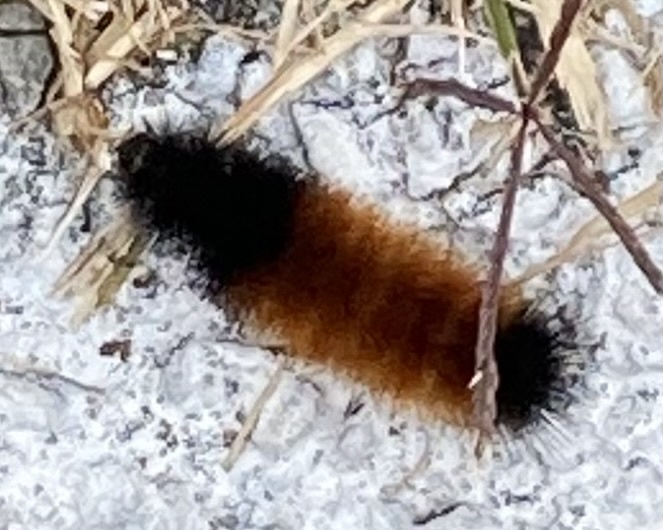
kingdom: Animalia
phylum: Arthropoda
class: Insecta
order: Lepidoptera
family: Erebidae
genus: Pyrrharctia
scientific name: Pyrrharctia isabella
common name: Isabella tiger moth
